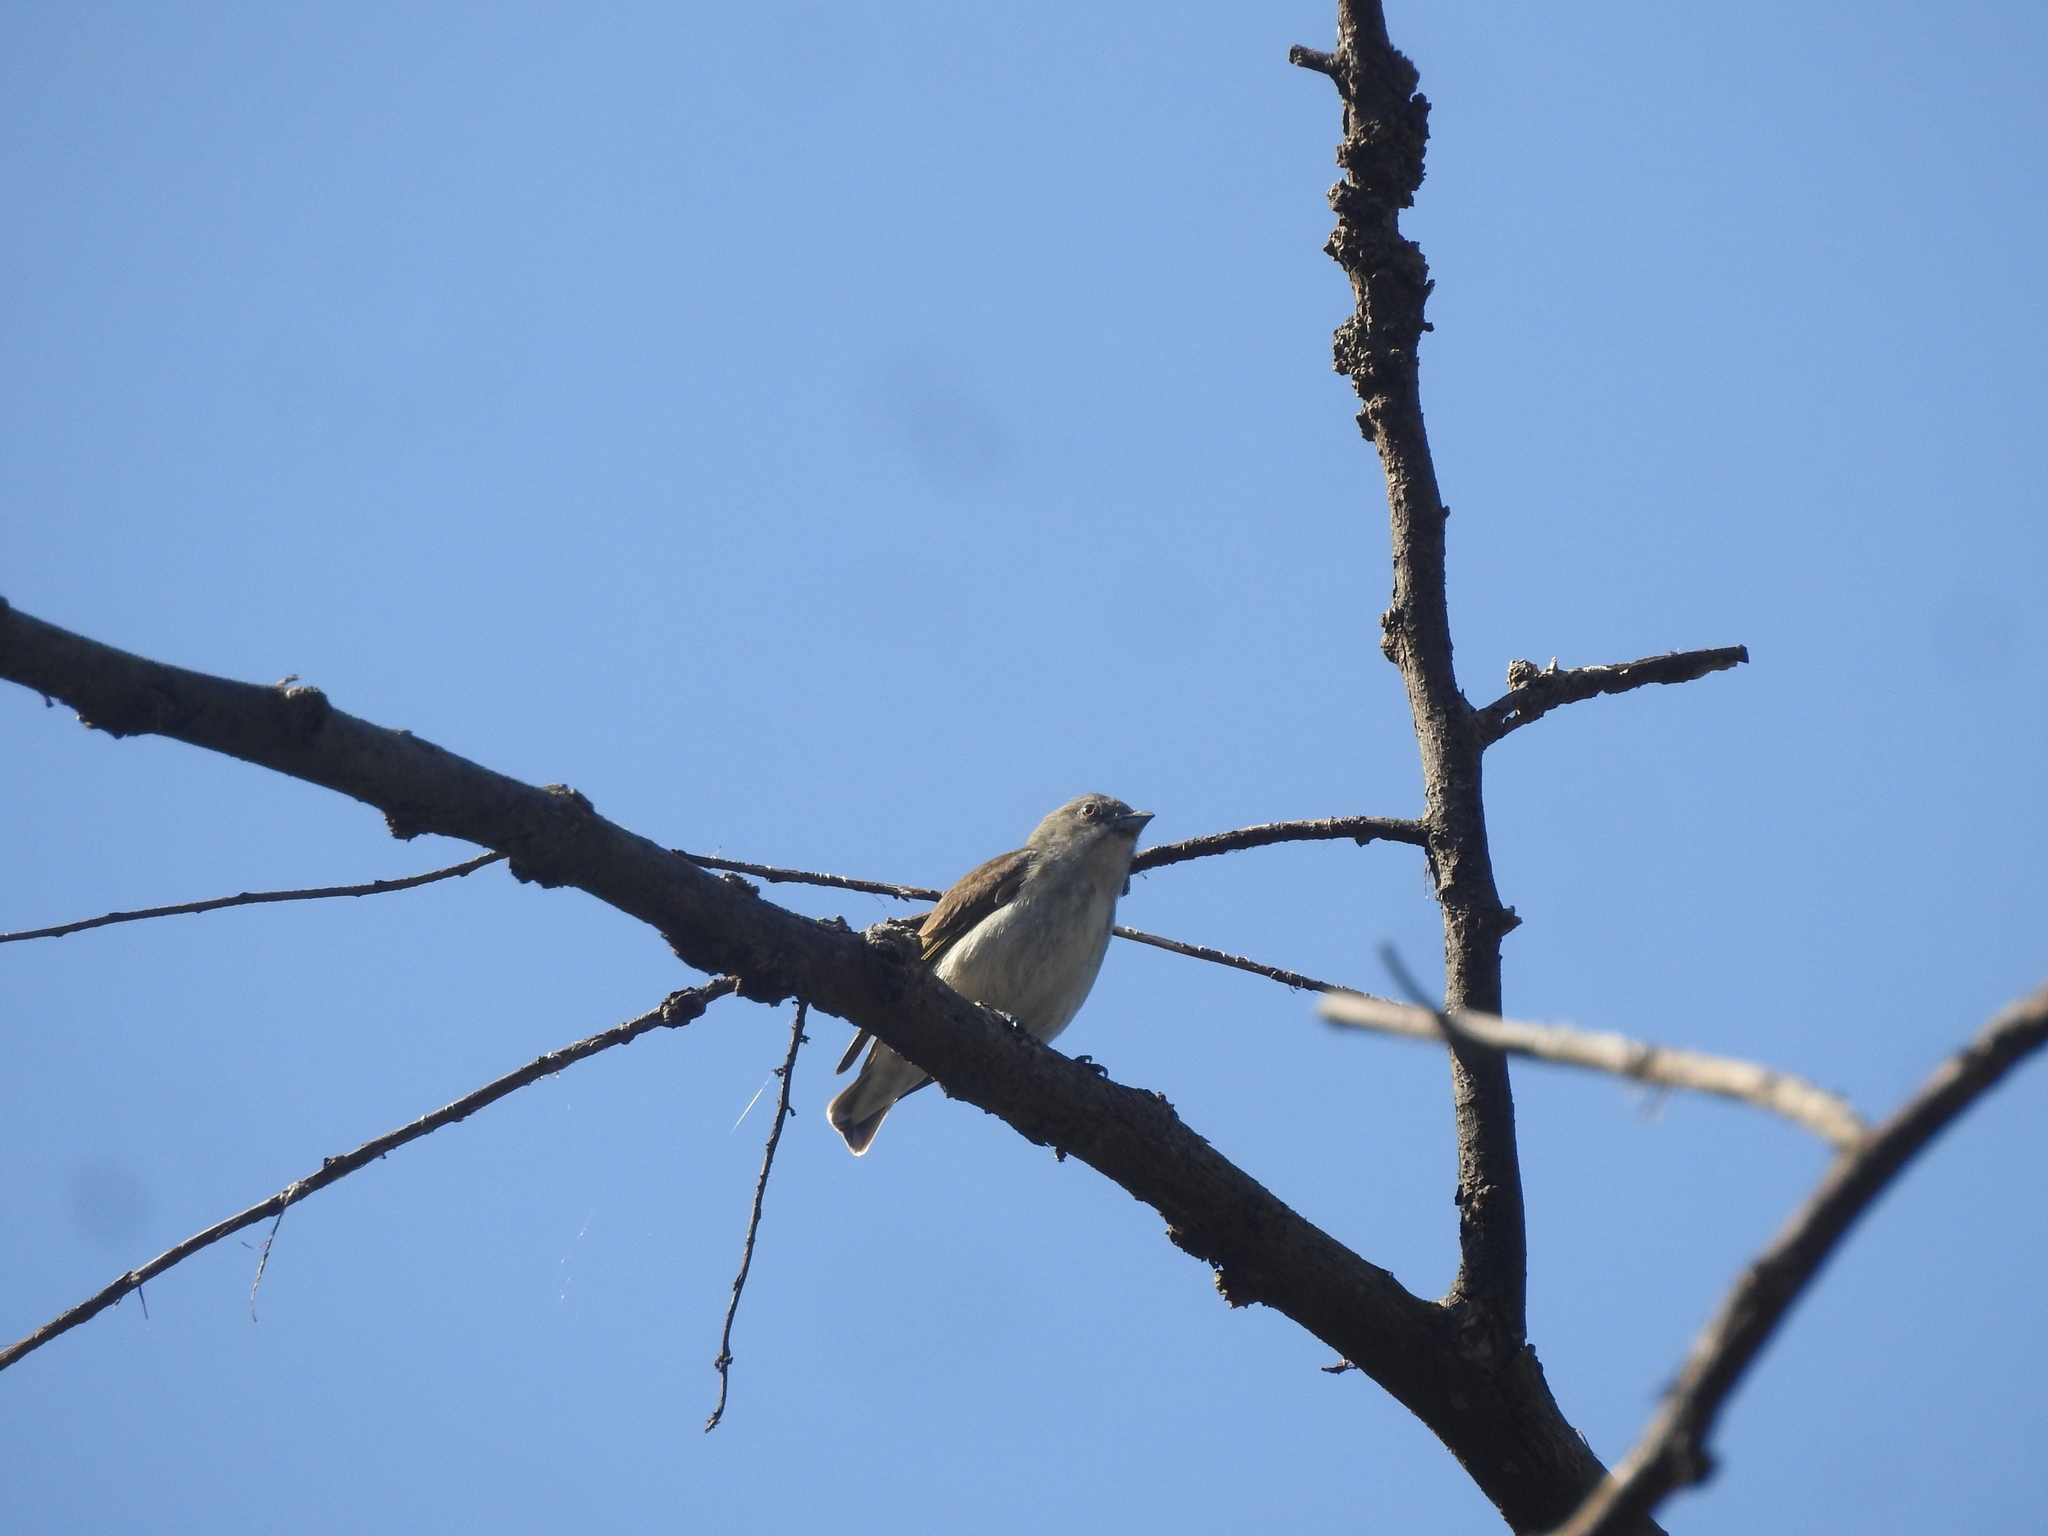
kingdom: Animalia
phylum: Chordata
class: Aves
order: Passeriformes
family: Dicaeidae
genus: Dicaeum
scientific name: Dicaeum agile
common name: Thick-billed flowerpecker
